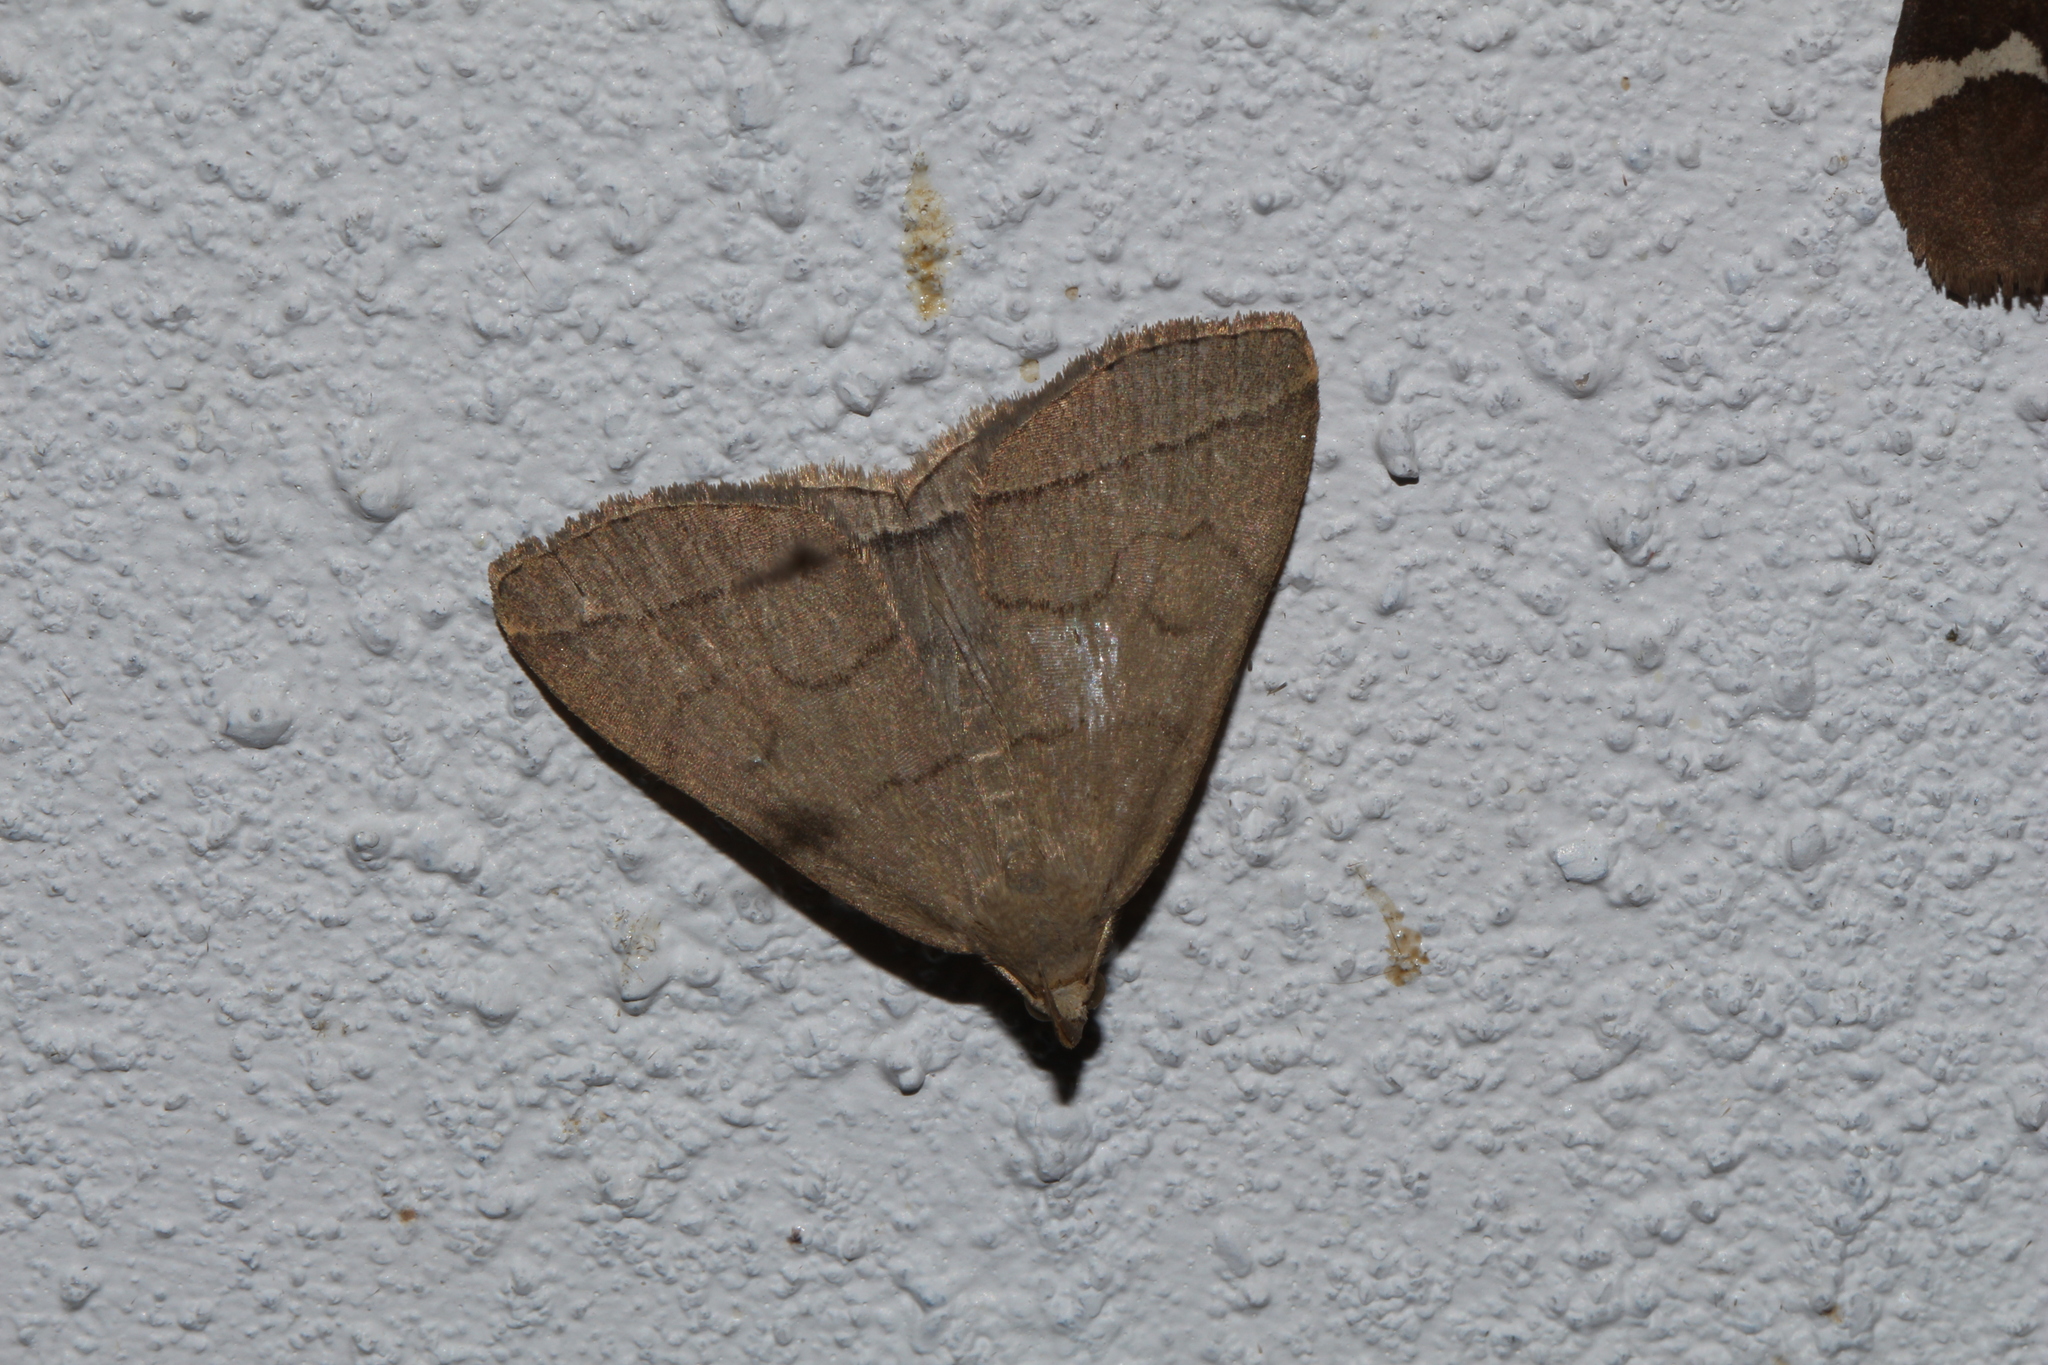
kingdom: Animalia
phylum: Arthropoda
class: Insecta
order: Lepidoptera
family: Erebidae
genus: Herminia
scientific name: Herminia tarsipennalis
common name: Fan-foot
